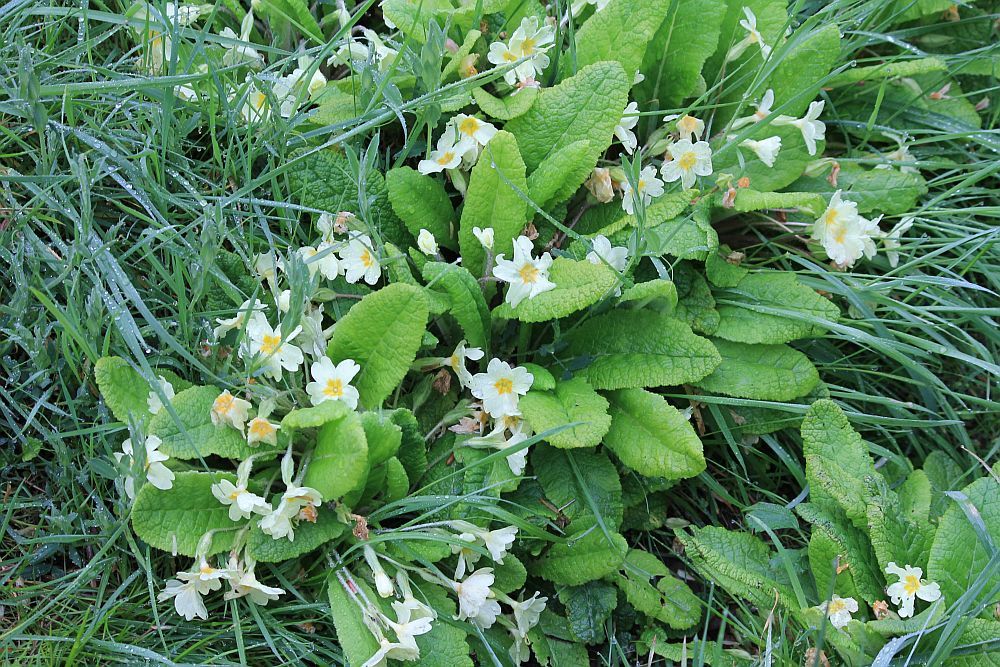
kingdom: Plantae
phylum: Tracheophyta
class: Magnoliopsida
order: Ericales
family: Primulaceae
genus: Primula
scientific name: Primula vulgaris
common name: Primrose
